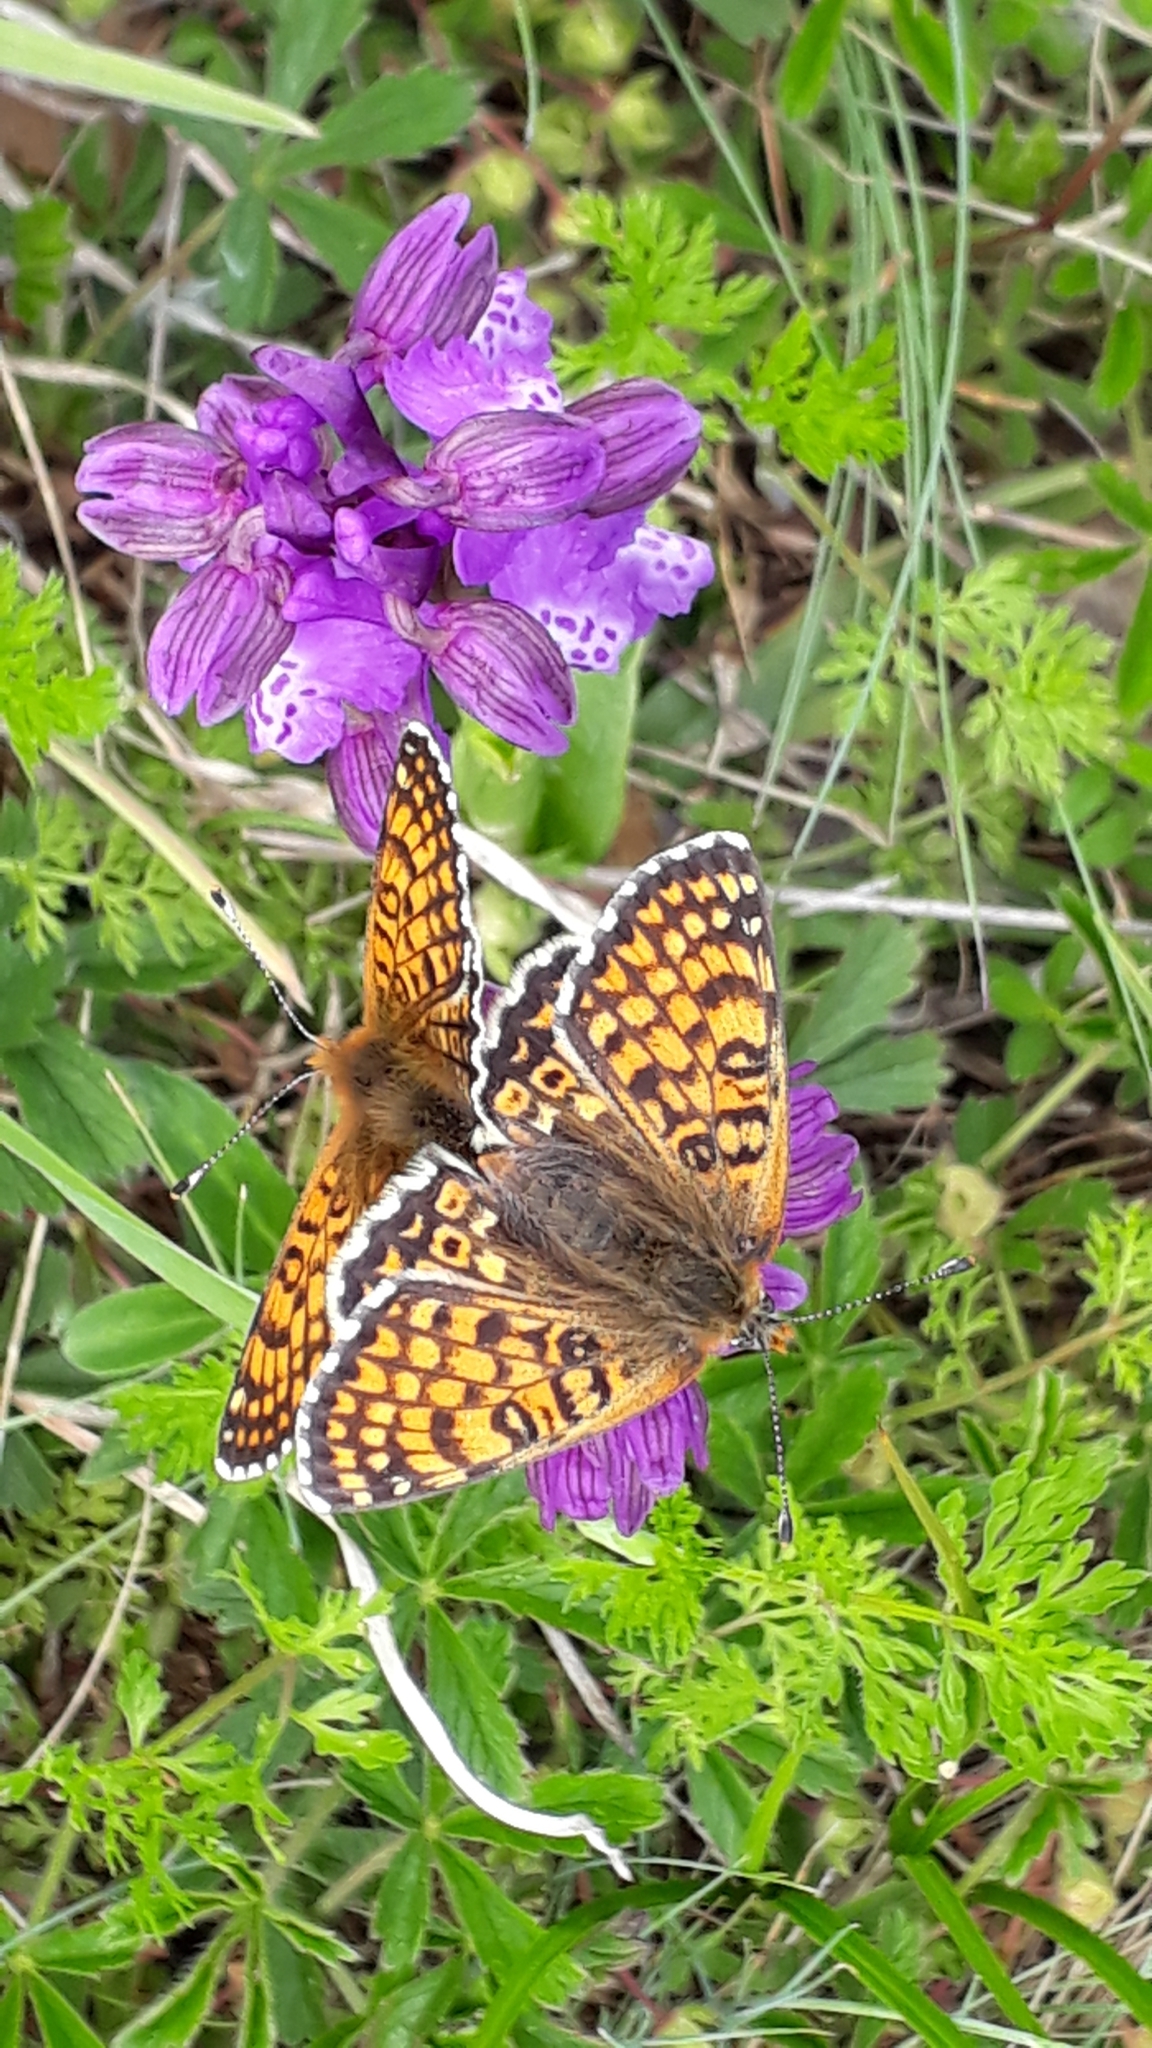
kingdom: Animalia
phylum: Arthropoda
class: Insecta
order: Lepidoptera
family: Nymphalidae
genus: Melitaea
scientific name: Melitaea cinxia
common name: Glanville fritillary
